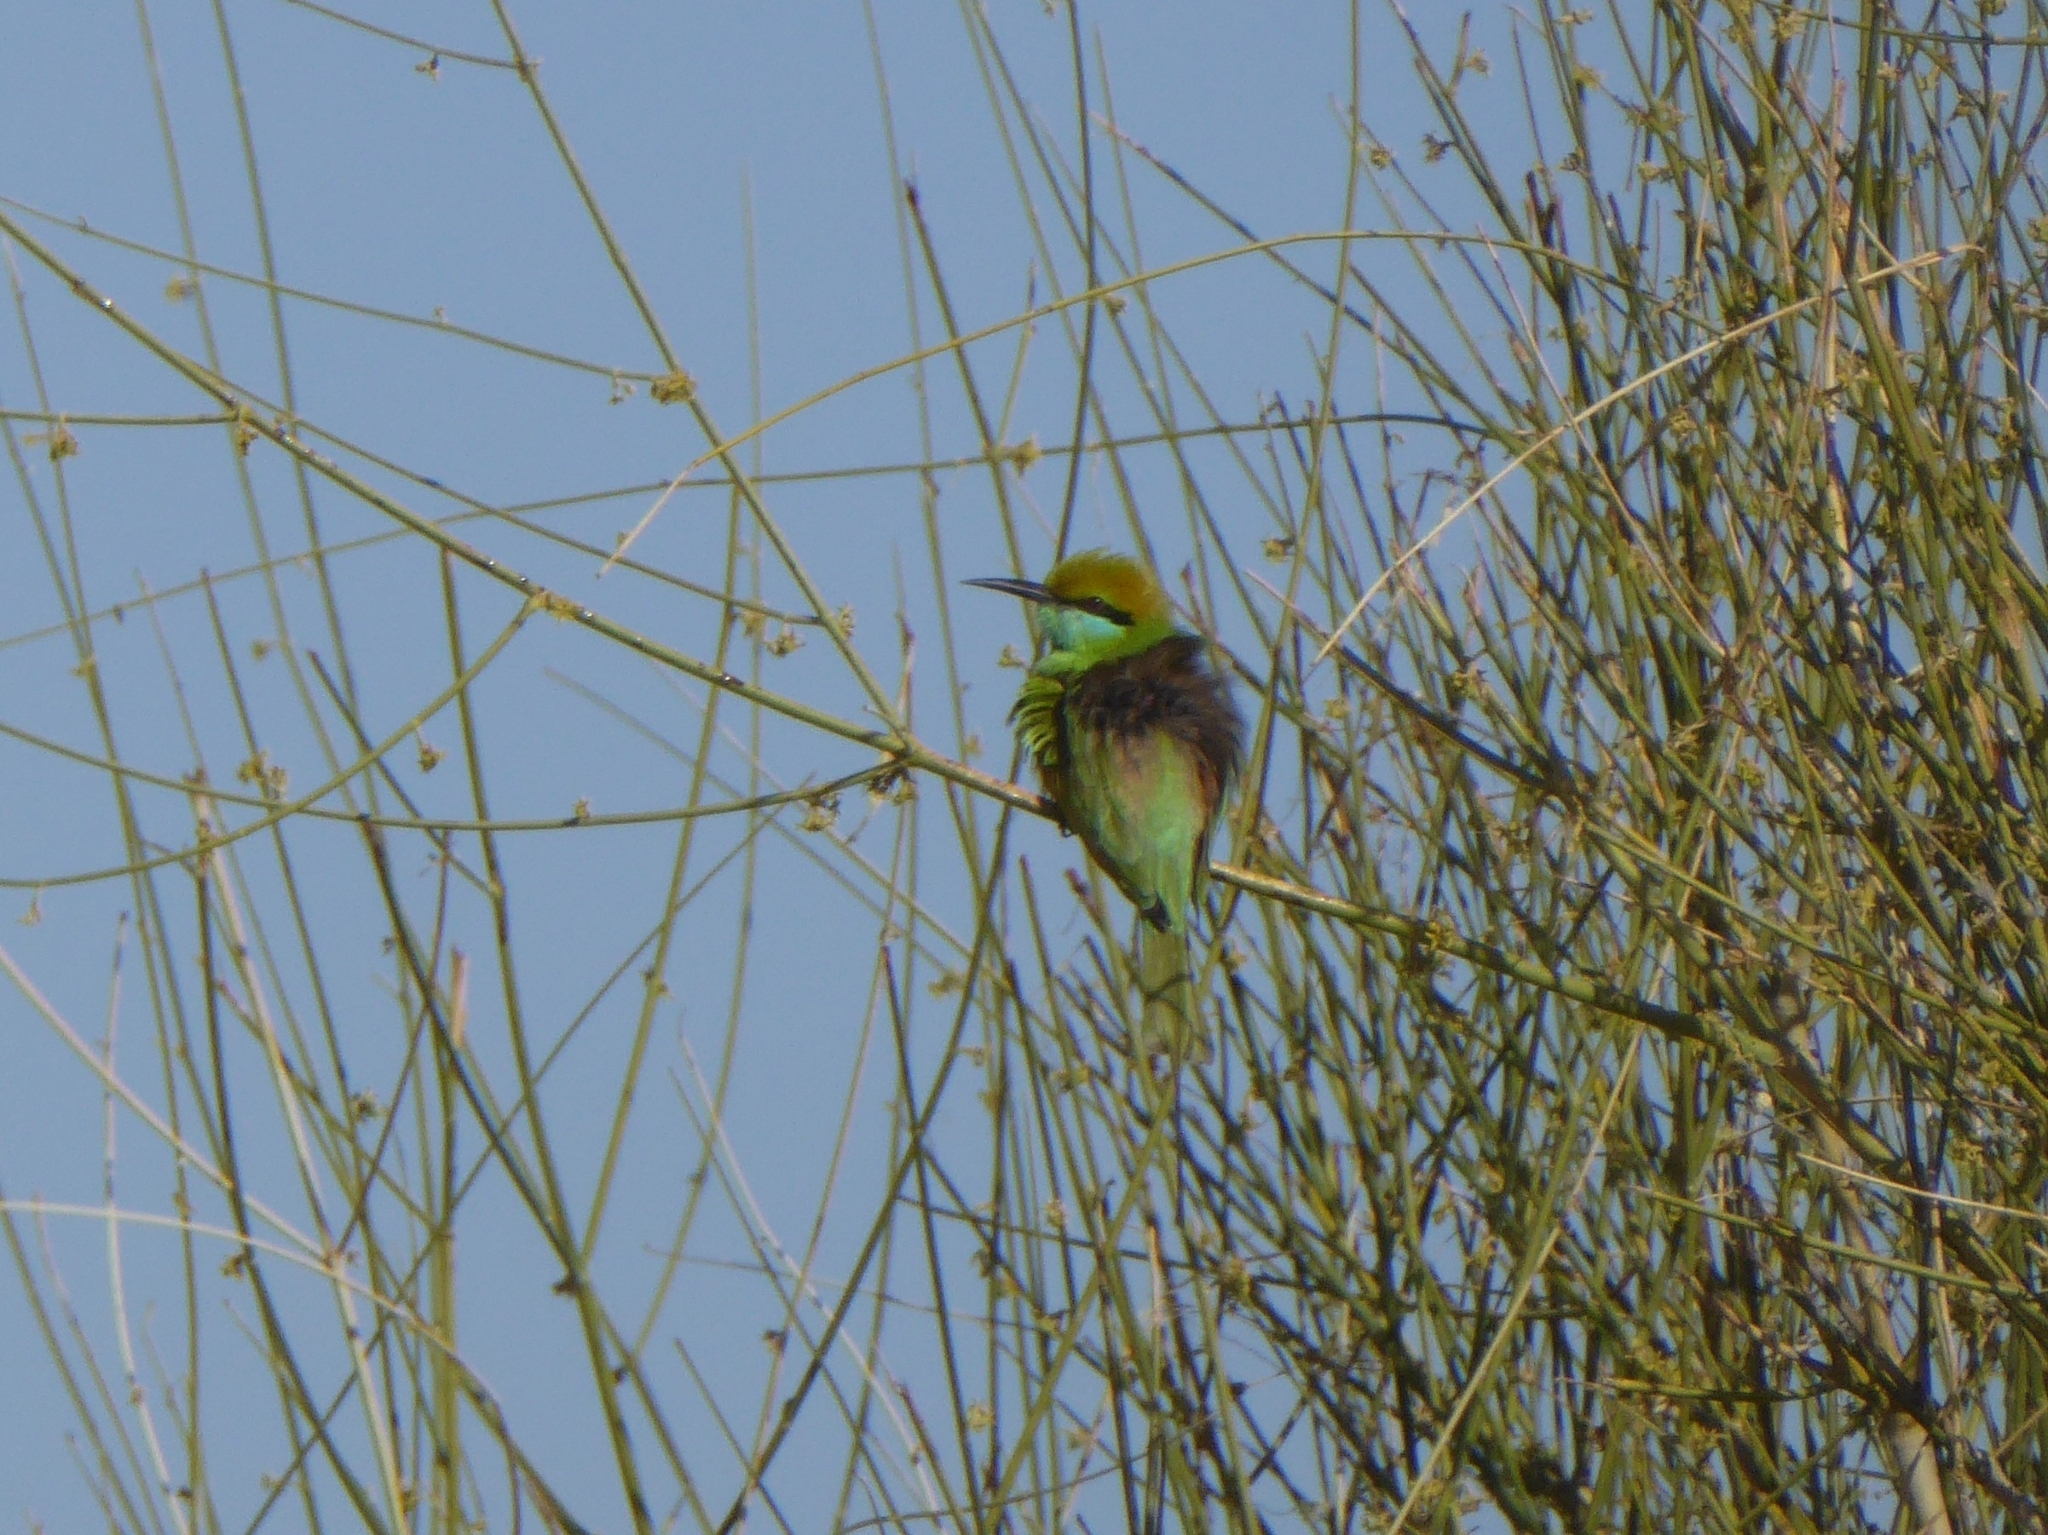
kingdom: Animalia
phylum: Chordata
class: Aves
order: Coraciiformes
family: Meropidae
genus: Merops
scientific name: Merops orientalis
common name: Green bee-eater
